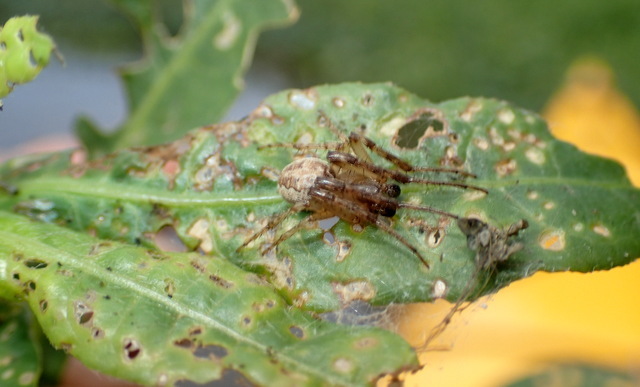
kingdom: Animalia
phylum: Arthropoda
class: Arachnida
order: Araneae
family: Araneidae
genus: Larinioides
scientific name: Larinioides cornutus
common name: Furrow orbweaver
